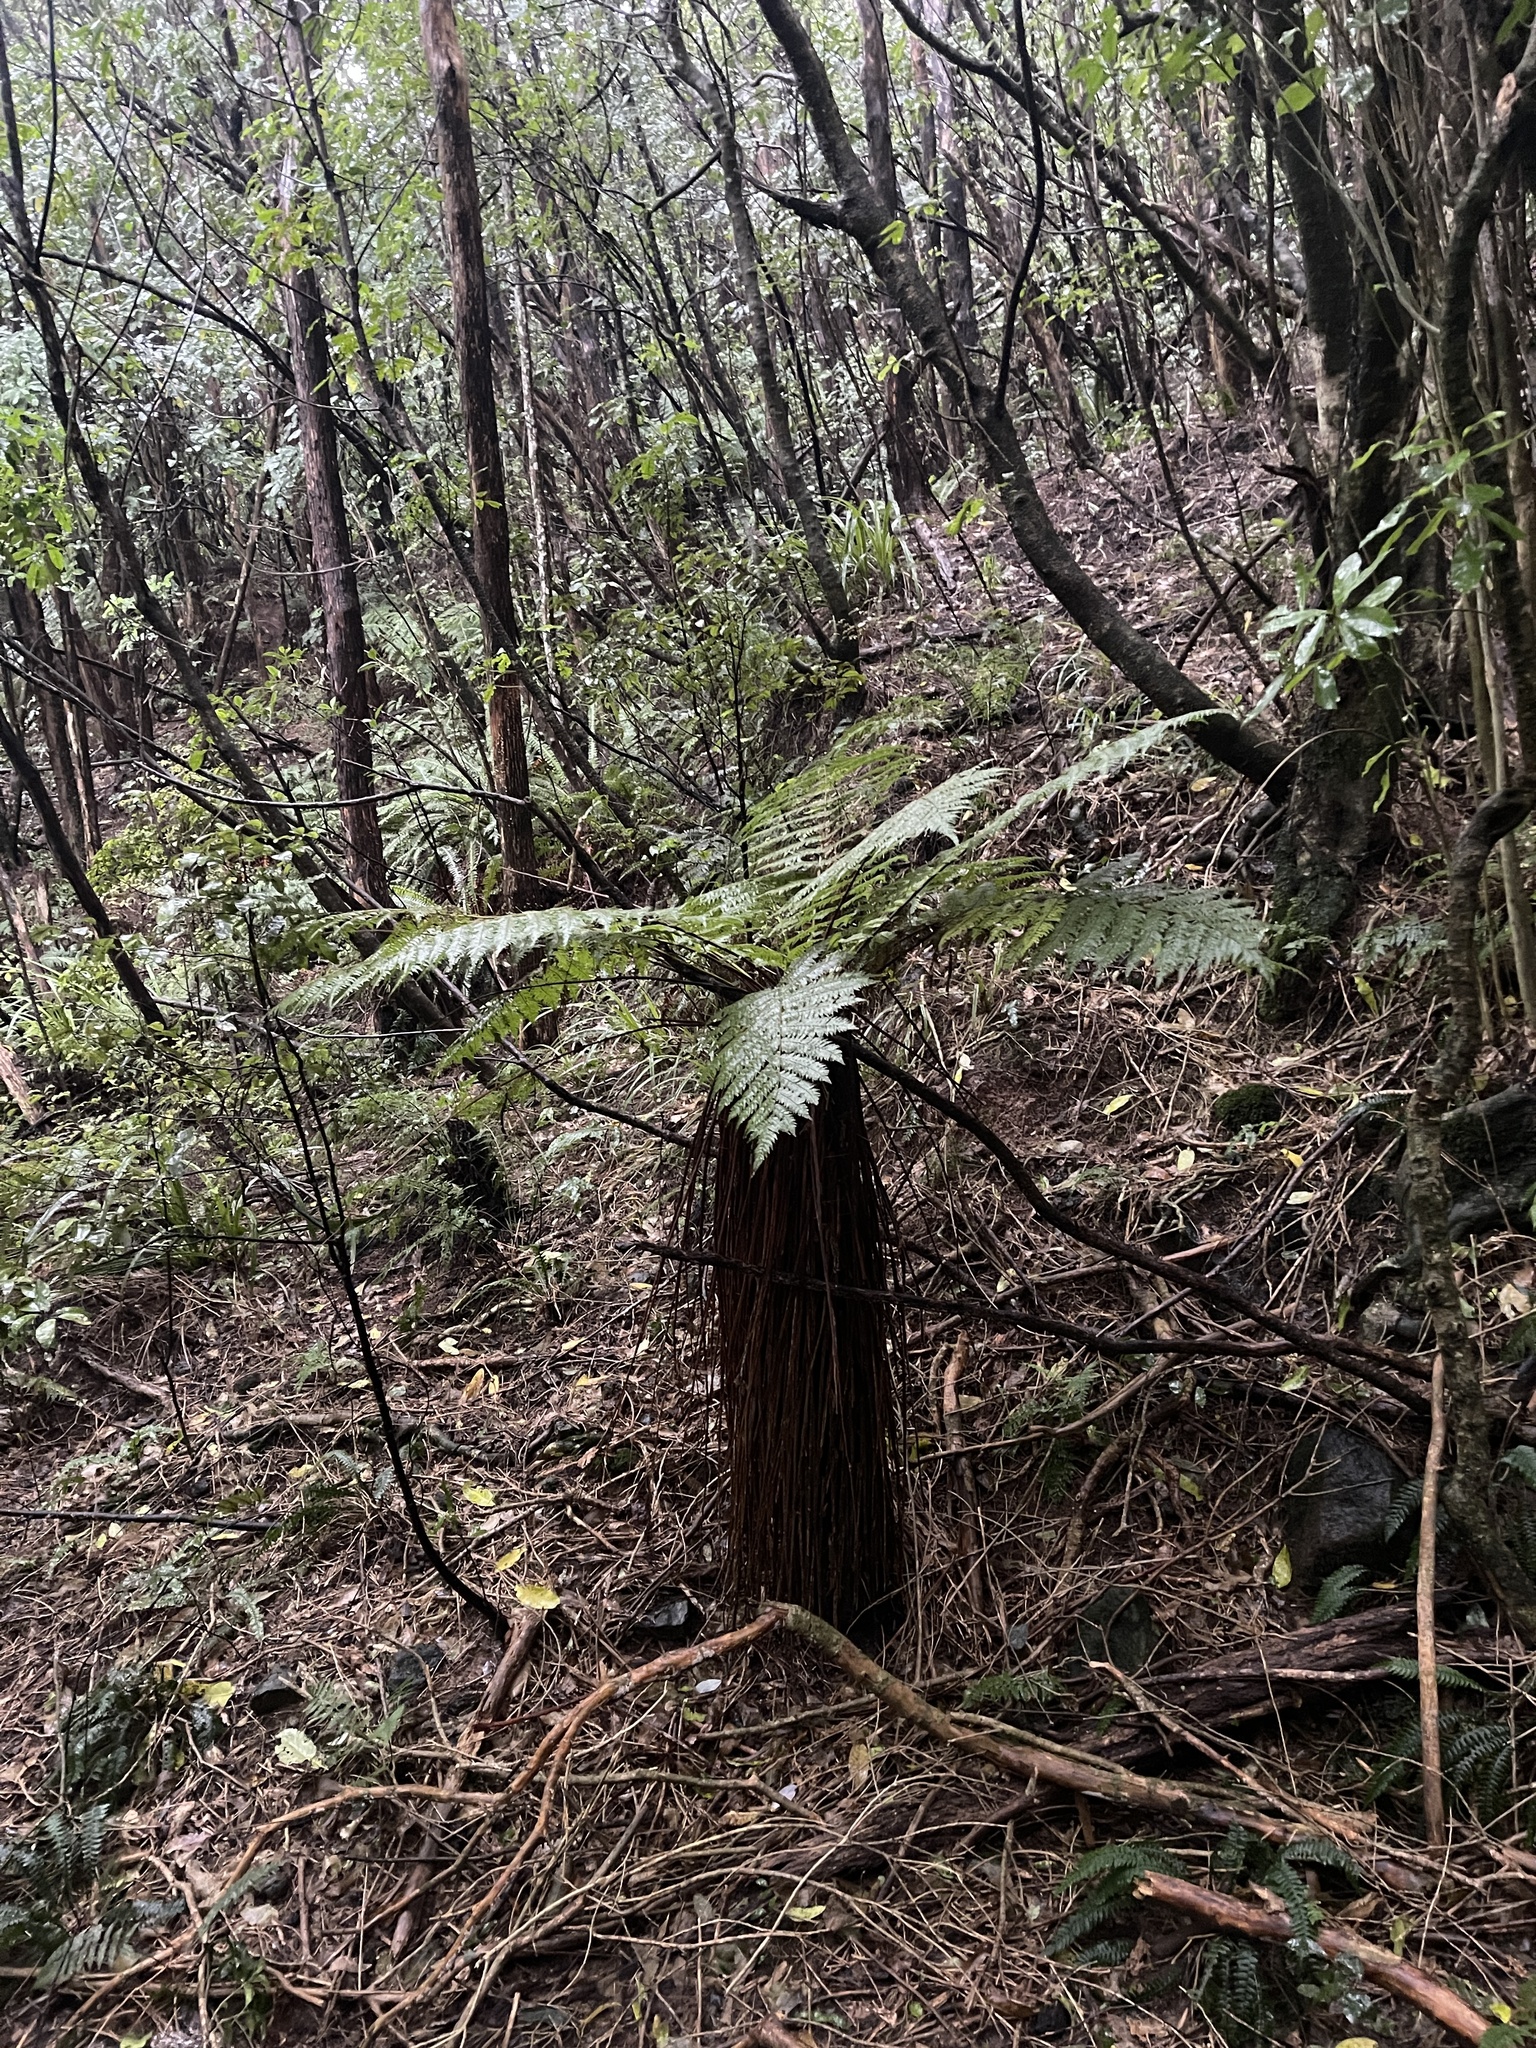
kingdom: Plantae
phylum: Tracheophyta
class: Polypodiopsida
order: Cyatheales
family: Cyatheaceae
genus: Alsophila
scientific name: Alsophila smithii
